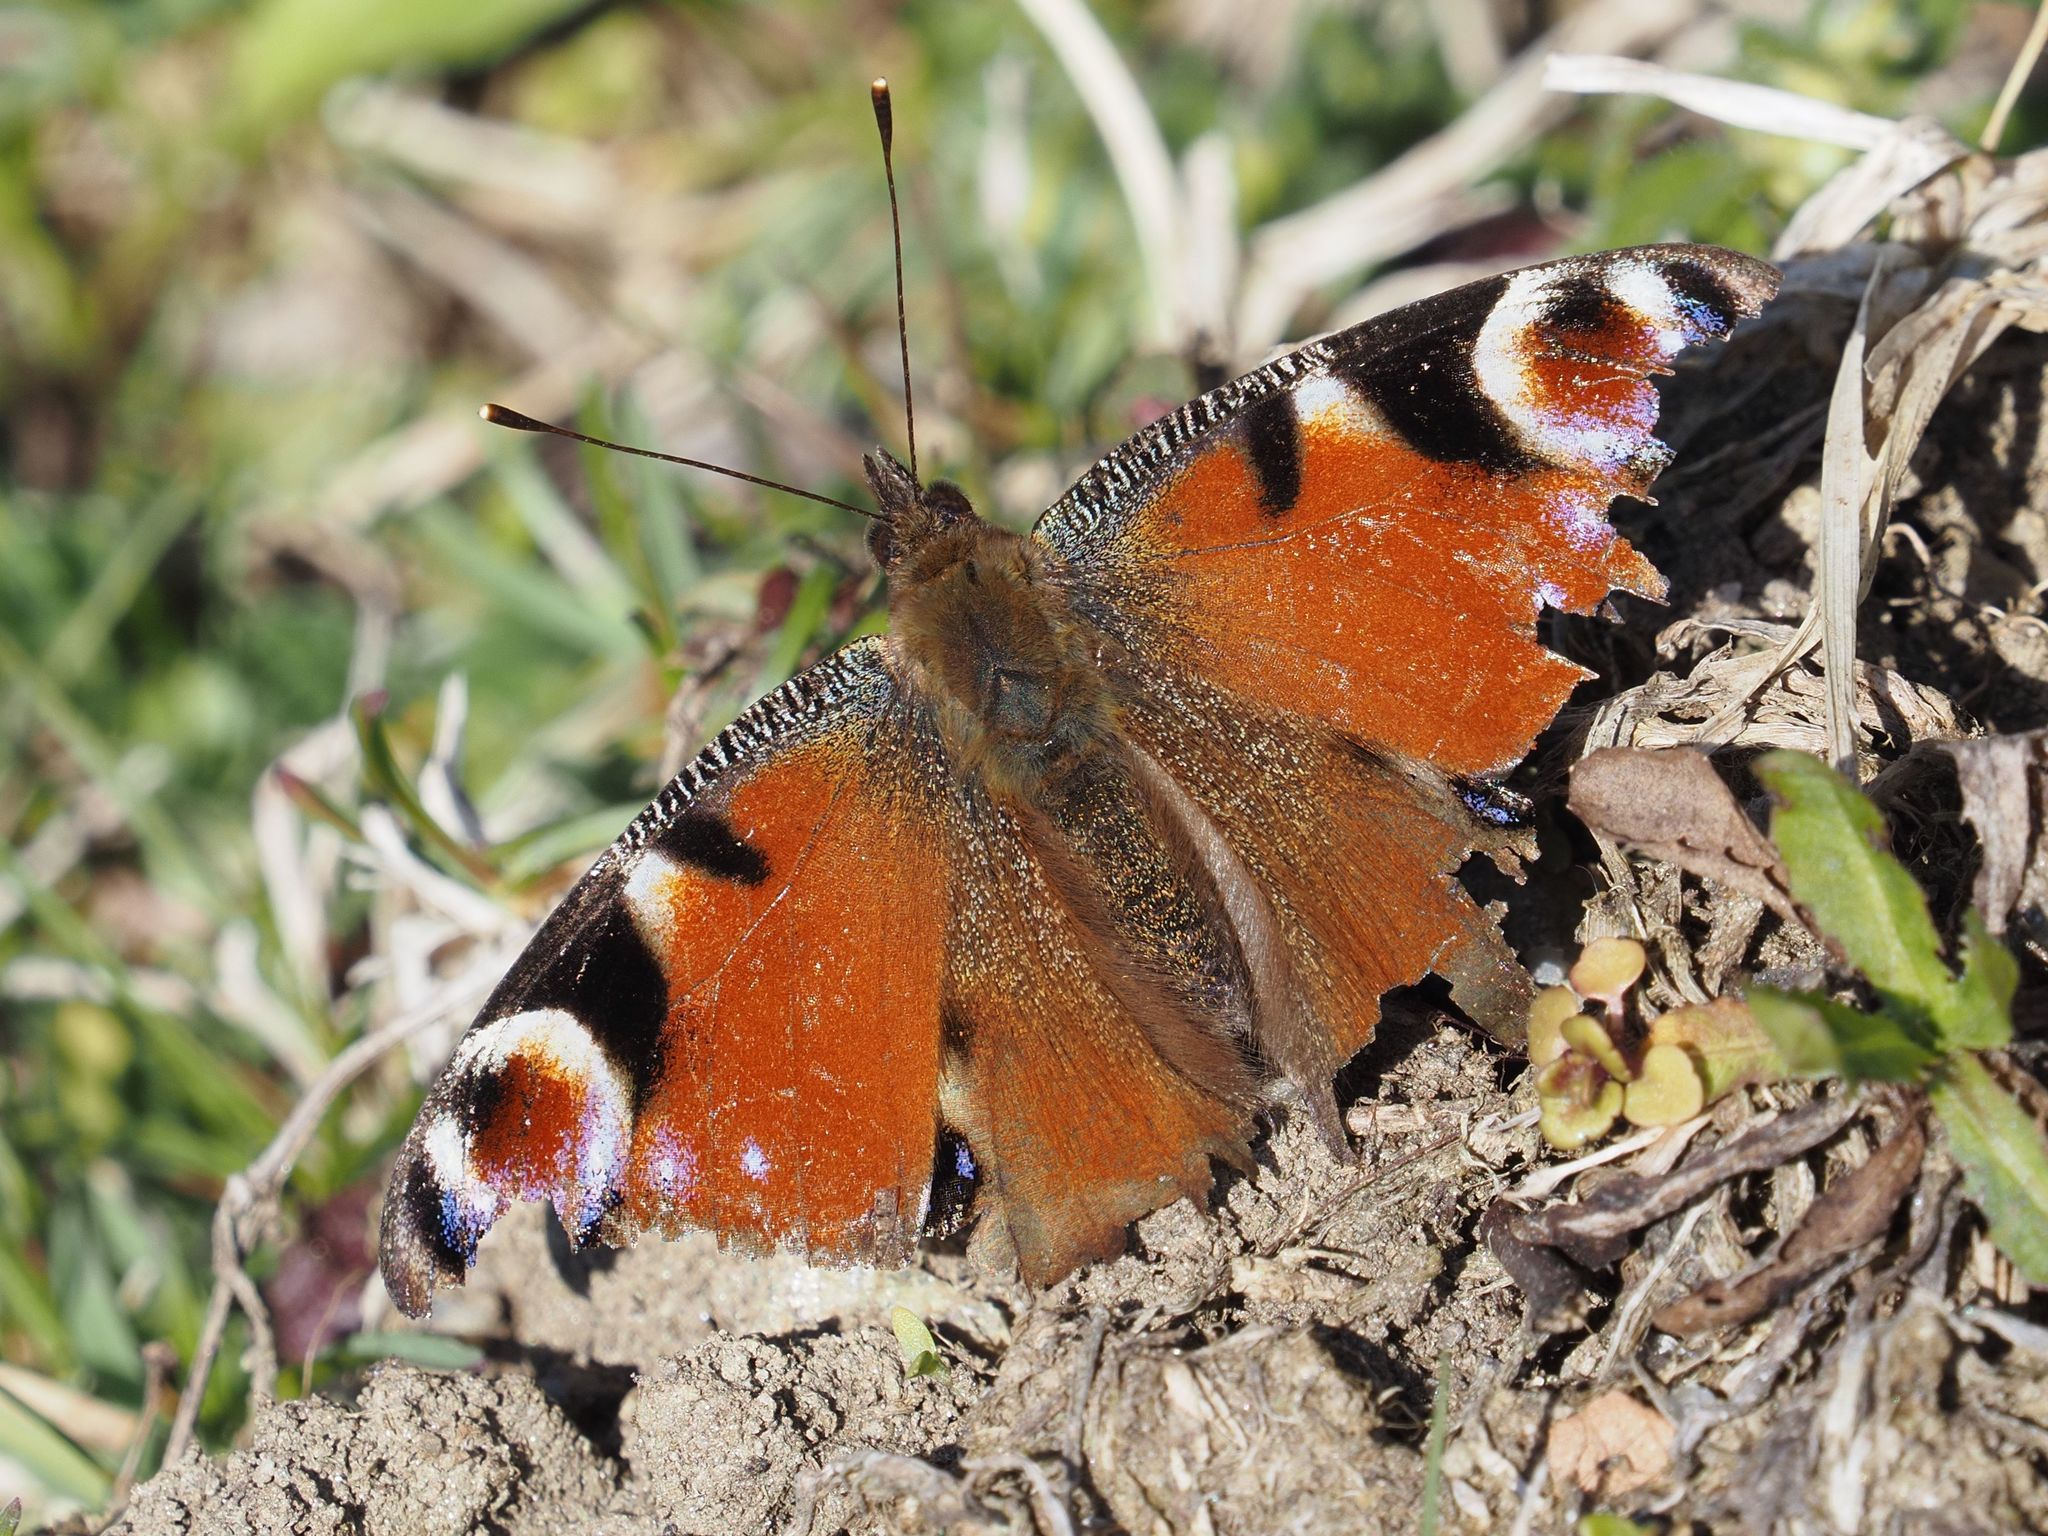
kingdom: Animalia
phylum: Arthropoda
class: Insecta
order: Lepidoptera
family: Nymphalidae
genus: Aglais
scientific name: Aglais io
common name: Peacock
